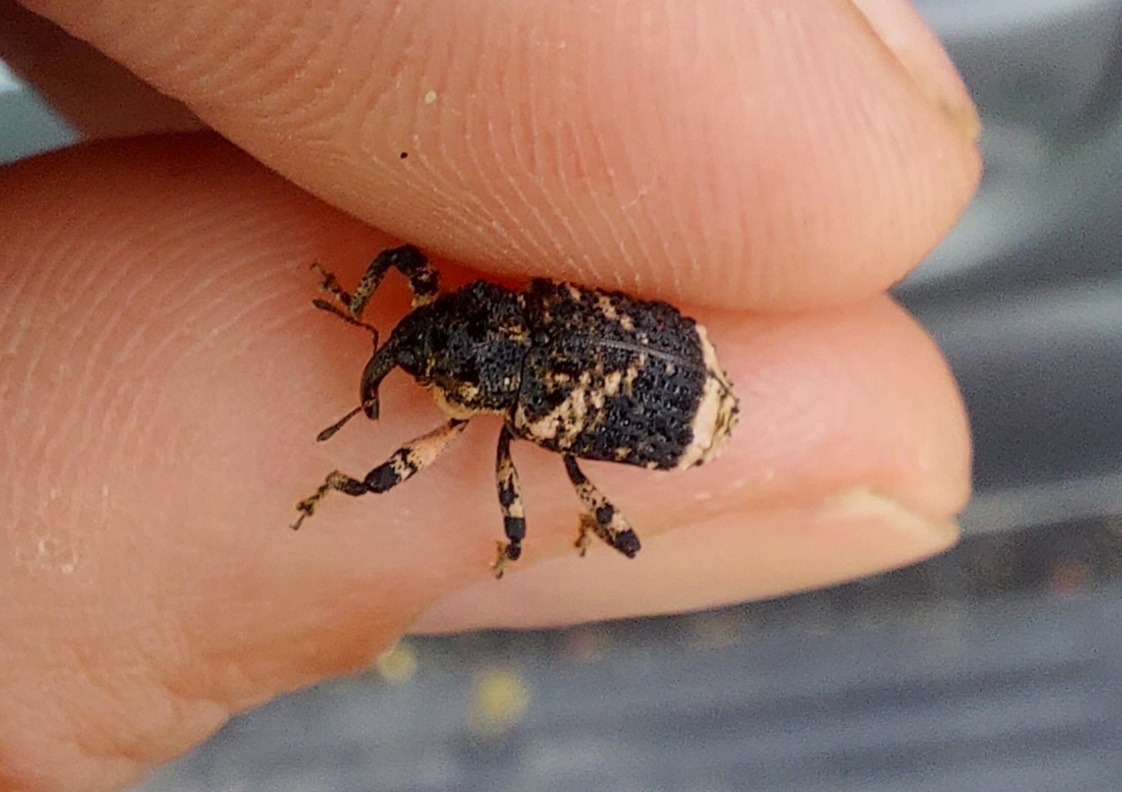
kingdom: Animalia
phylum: Arthropoda
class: Insecta
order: Coleoptera
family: Curculionidae
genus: Cryptorhynchus
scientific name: Cryptorhynchus lapathi
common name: Weevil
